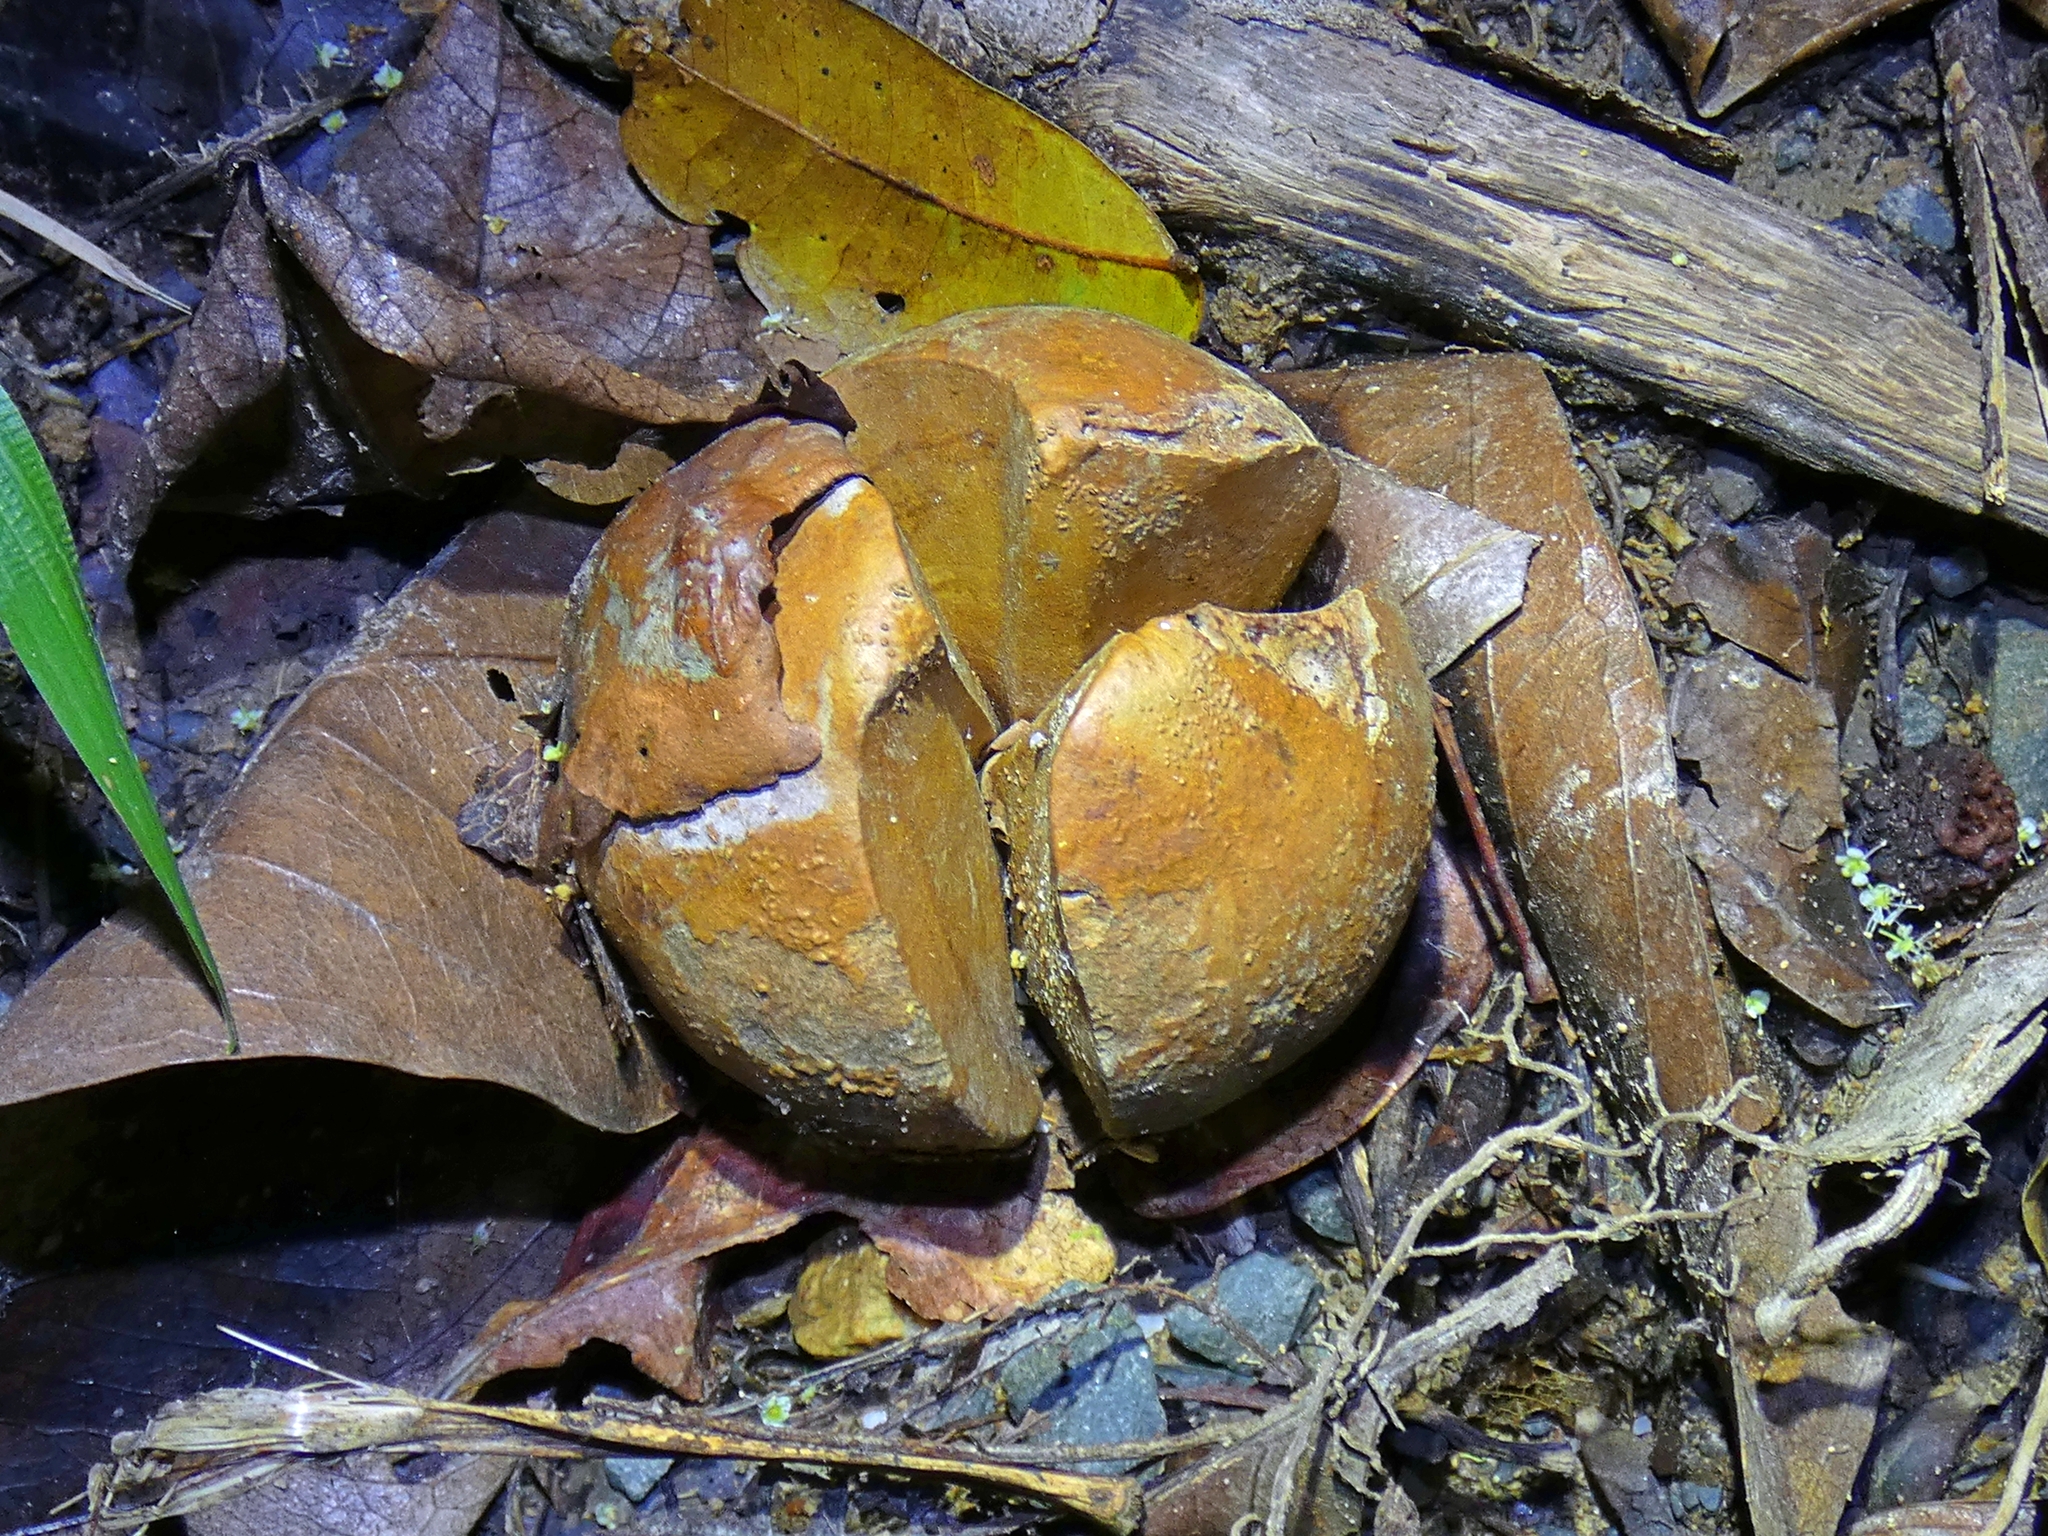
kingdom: Plantae
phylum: Tracheophyta
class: Magnoliopsida
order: Laurales
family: Calycanthaceae
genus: Idiospermum
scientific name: Idiospermum australiense
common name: Idiot-fruit
